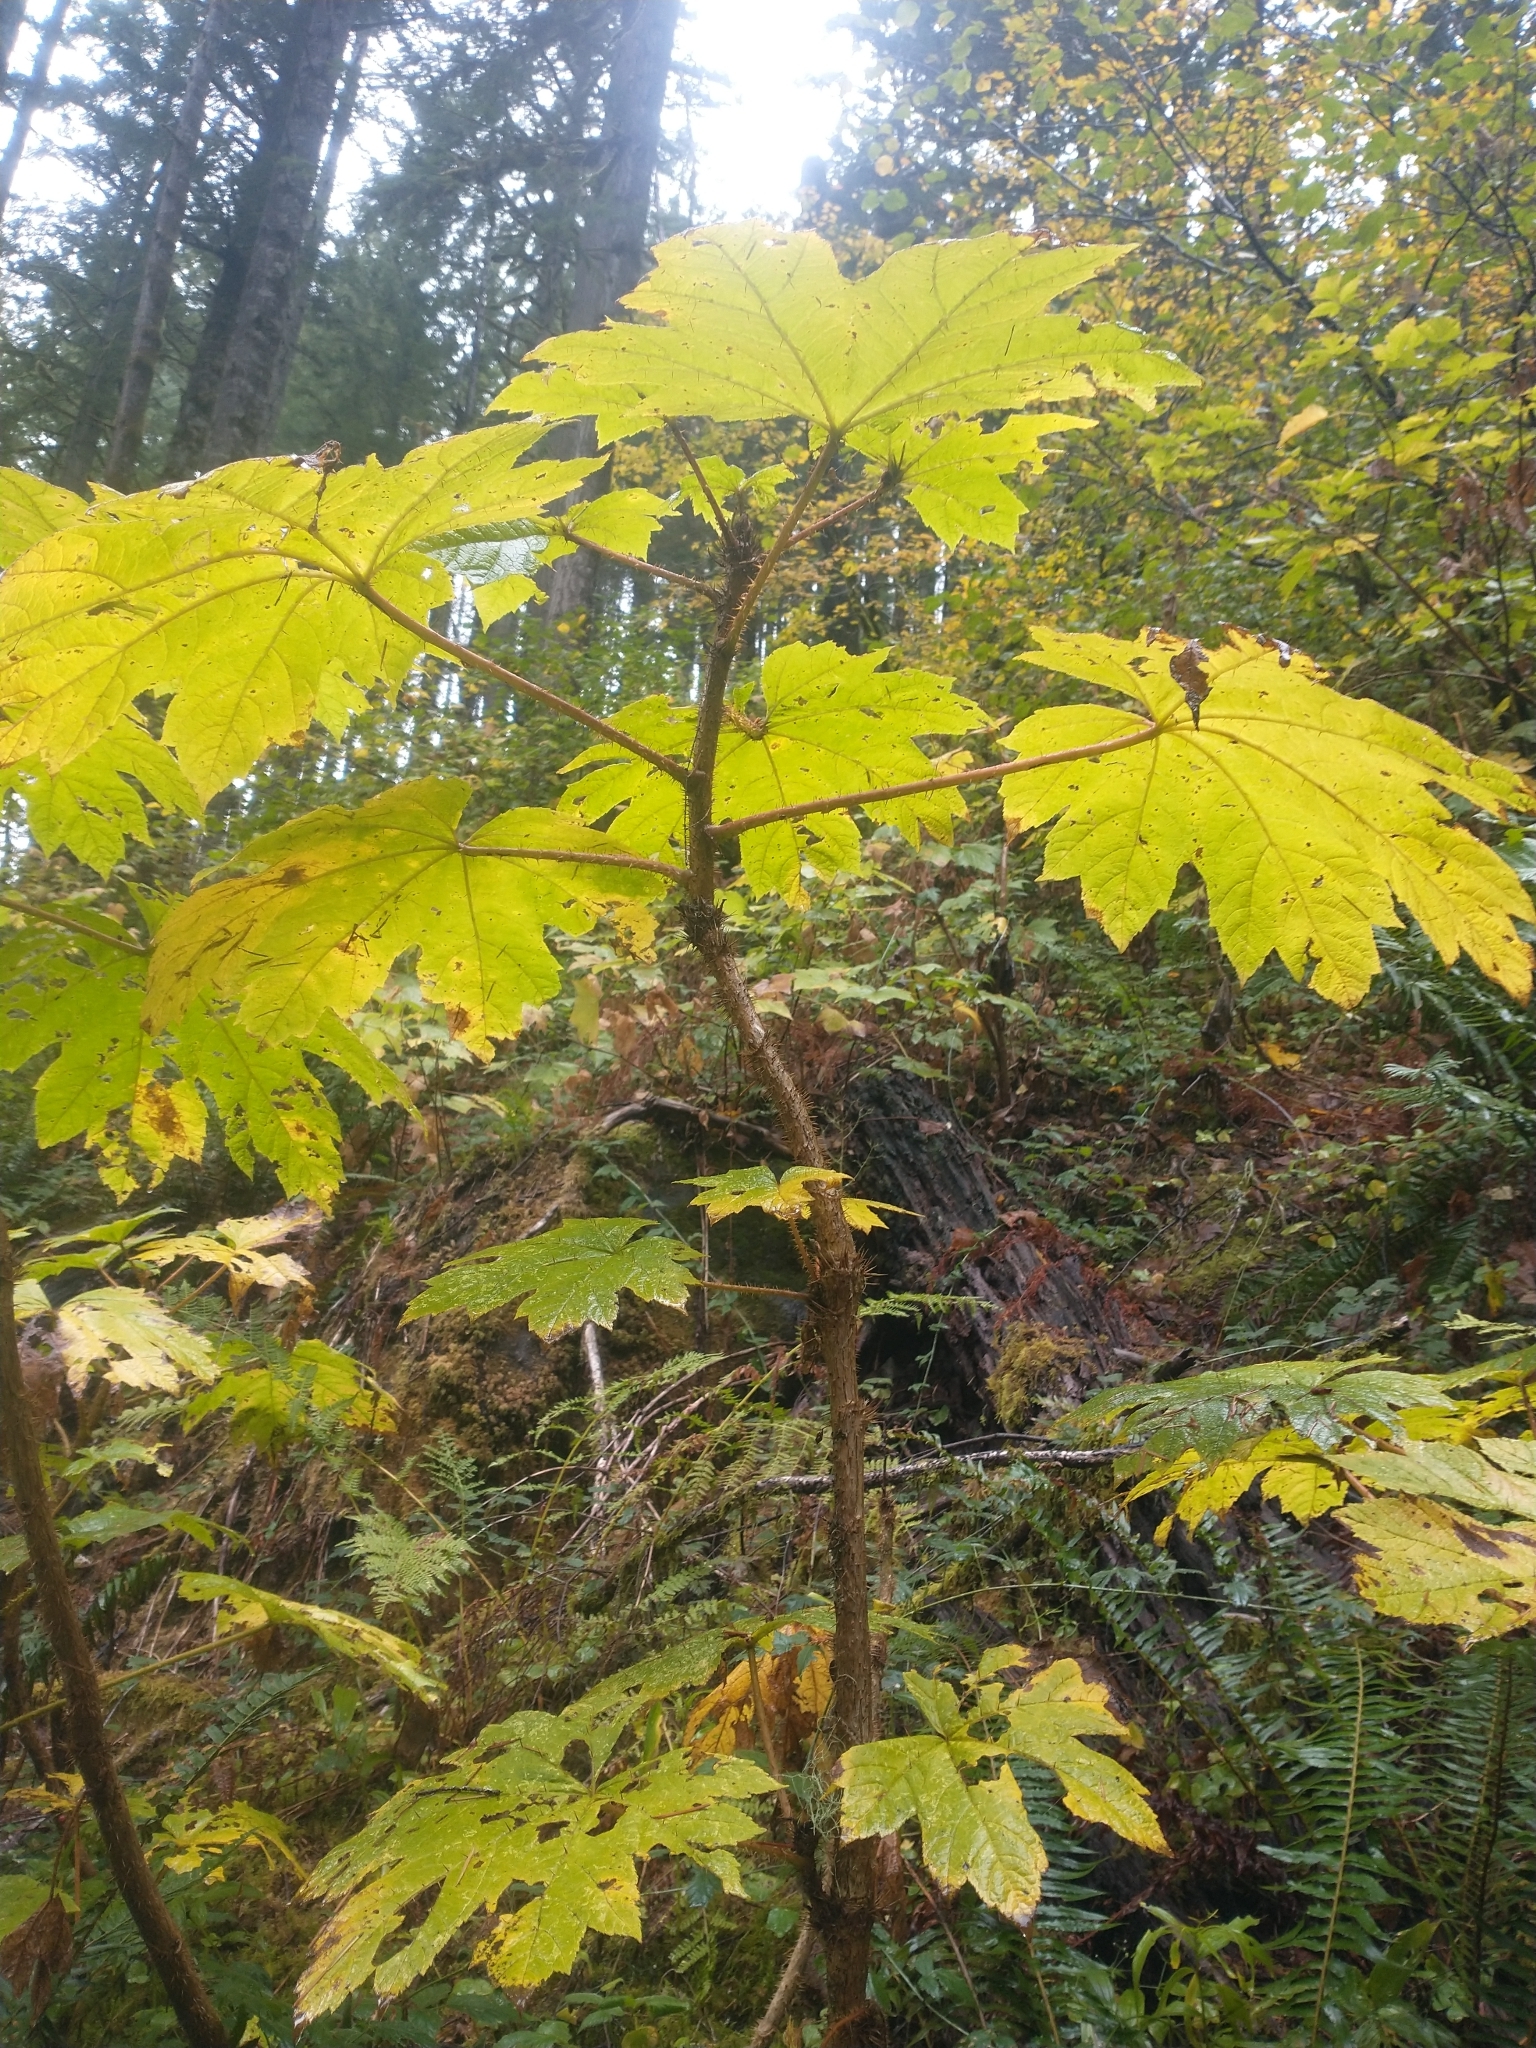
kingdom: Plantae
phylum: Tracheophyta
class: Magnoliopsida
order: Apiales
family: Araliaceae
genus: Oplopanax
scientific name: Oplopanax horridus
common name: Devil's walking-stick
